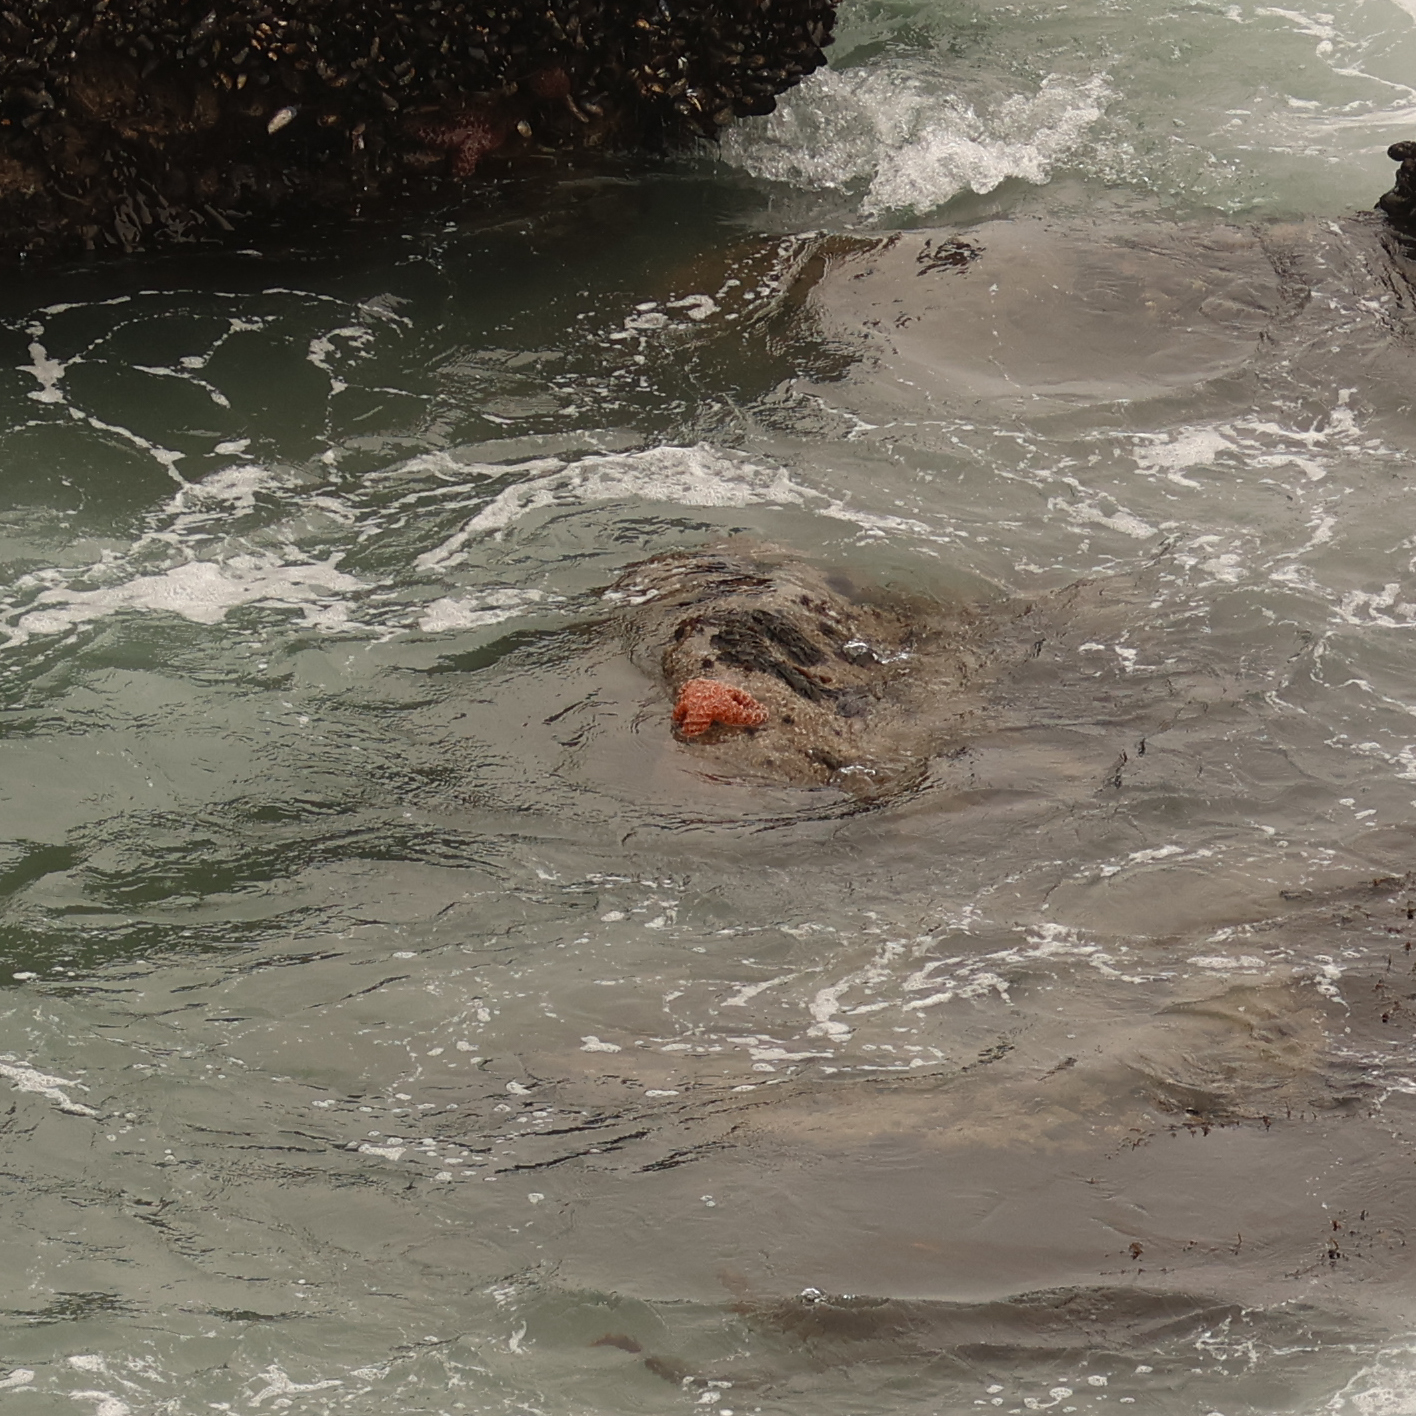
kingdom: Animalia
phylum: Echinodermata
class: Asteroidea
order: Forcipulatida
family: Asteriidae
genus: Pisaster
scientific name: Pisaster ochraceus
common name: Ochre stars
